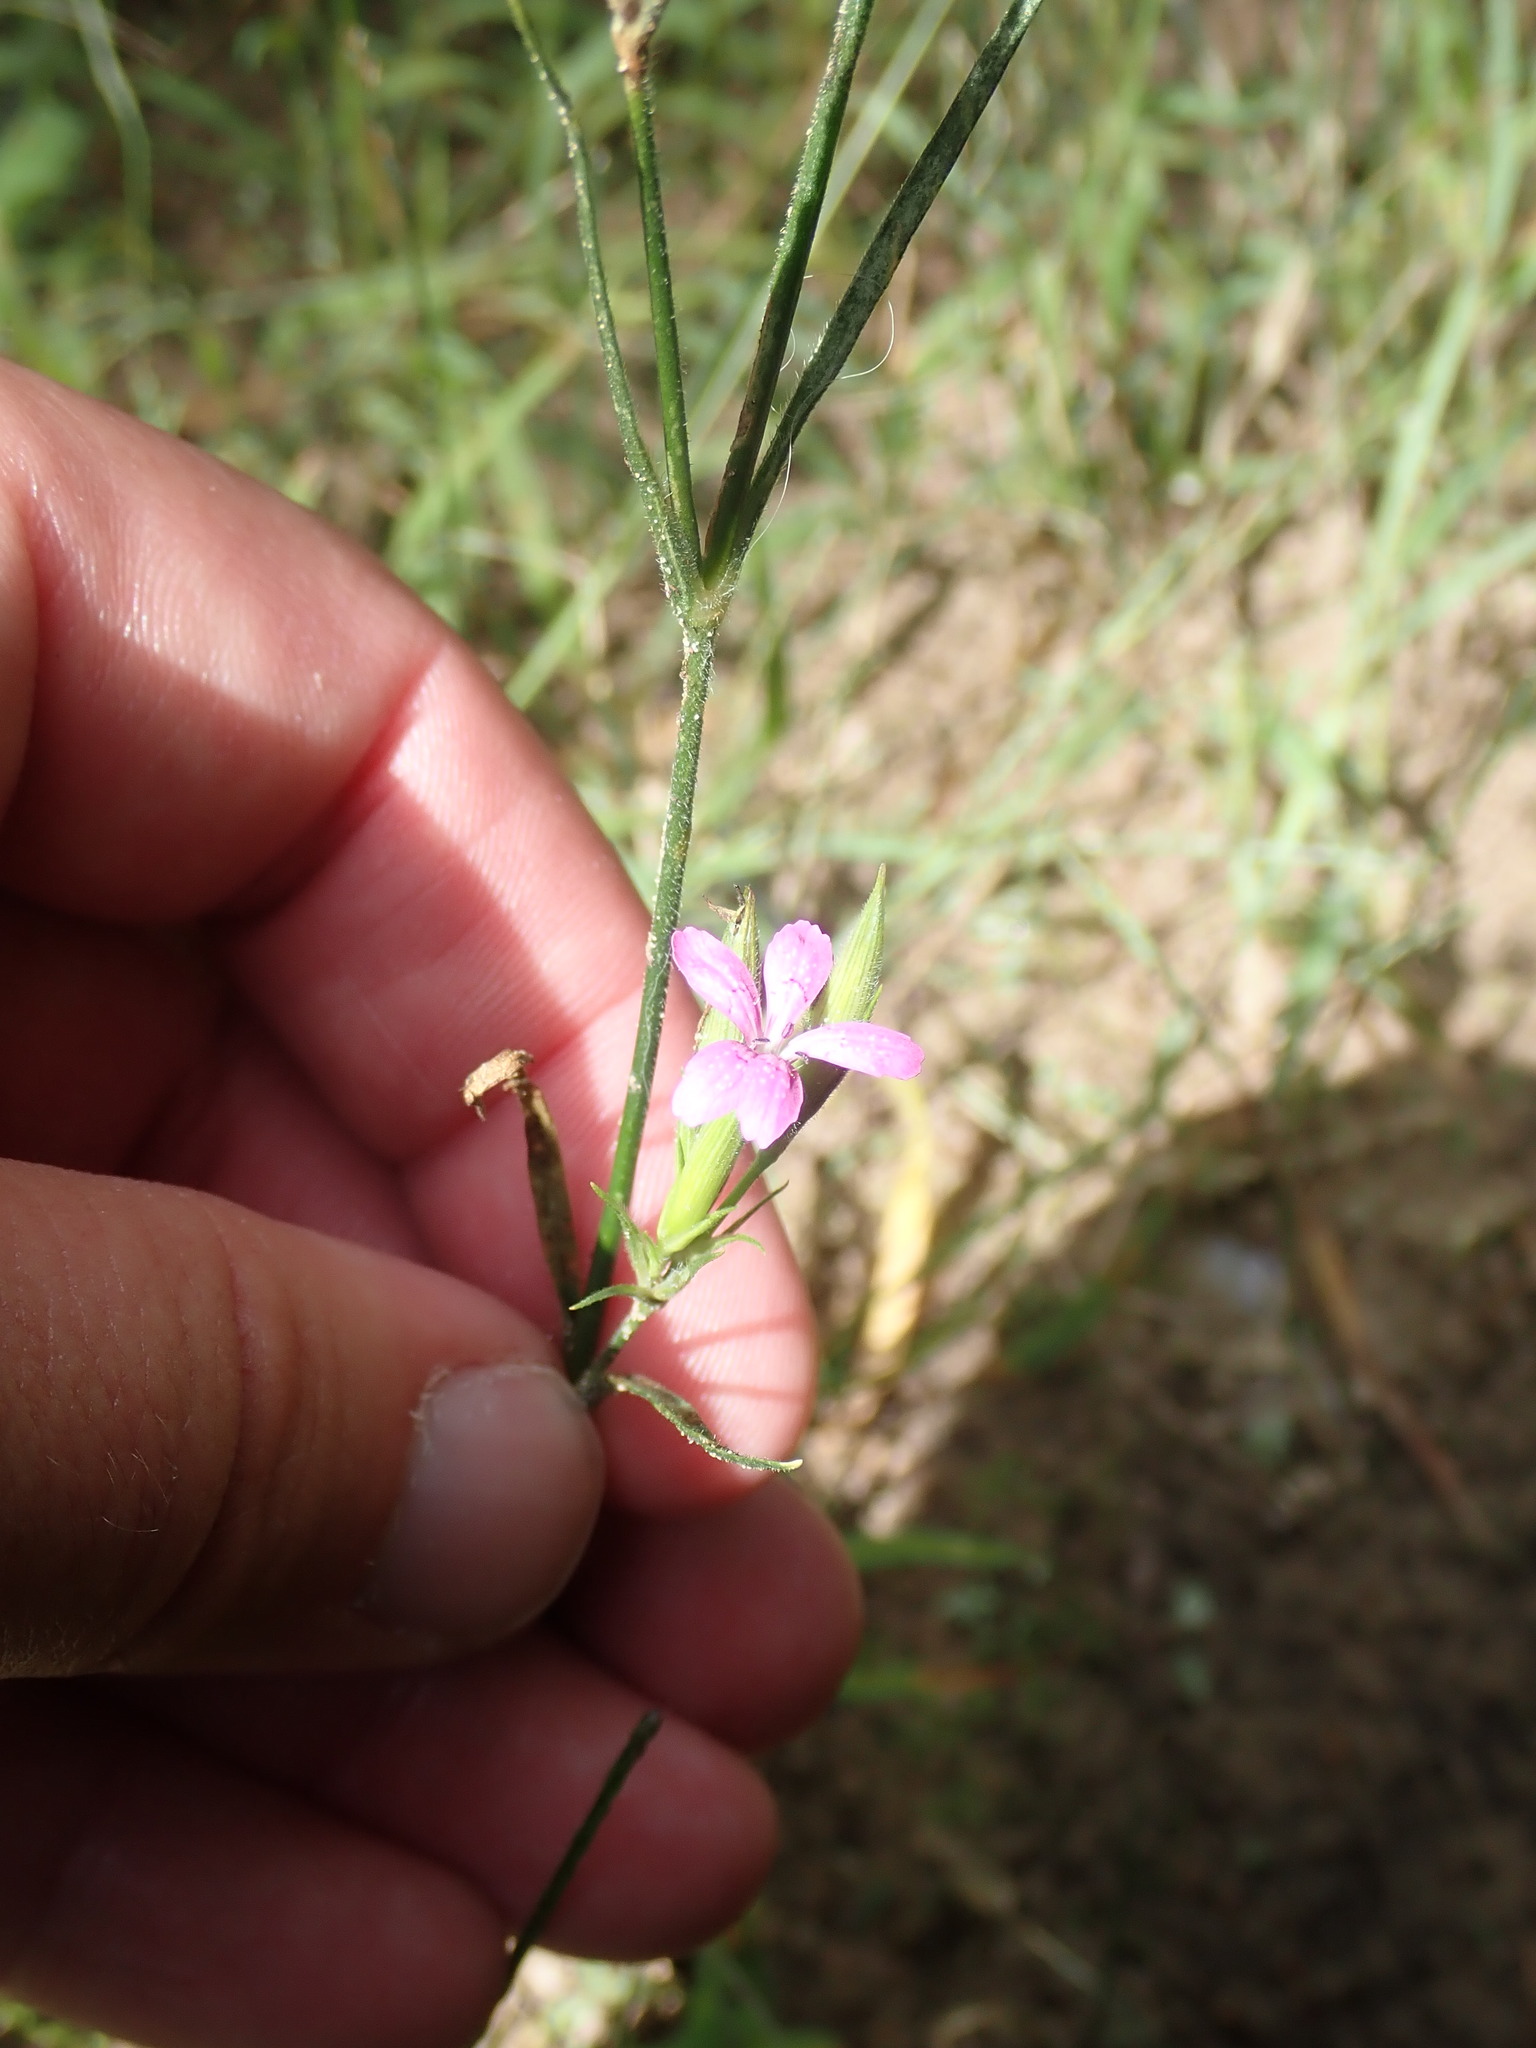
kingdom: Plantae
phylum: Tracheophyta
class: Magnoliopsida
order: Caryophyllales
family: Caryophyllaceae
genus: Dianthus
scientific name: Dianthus armeria
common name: Deptford pink
